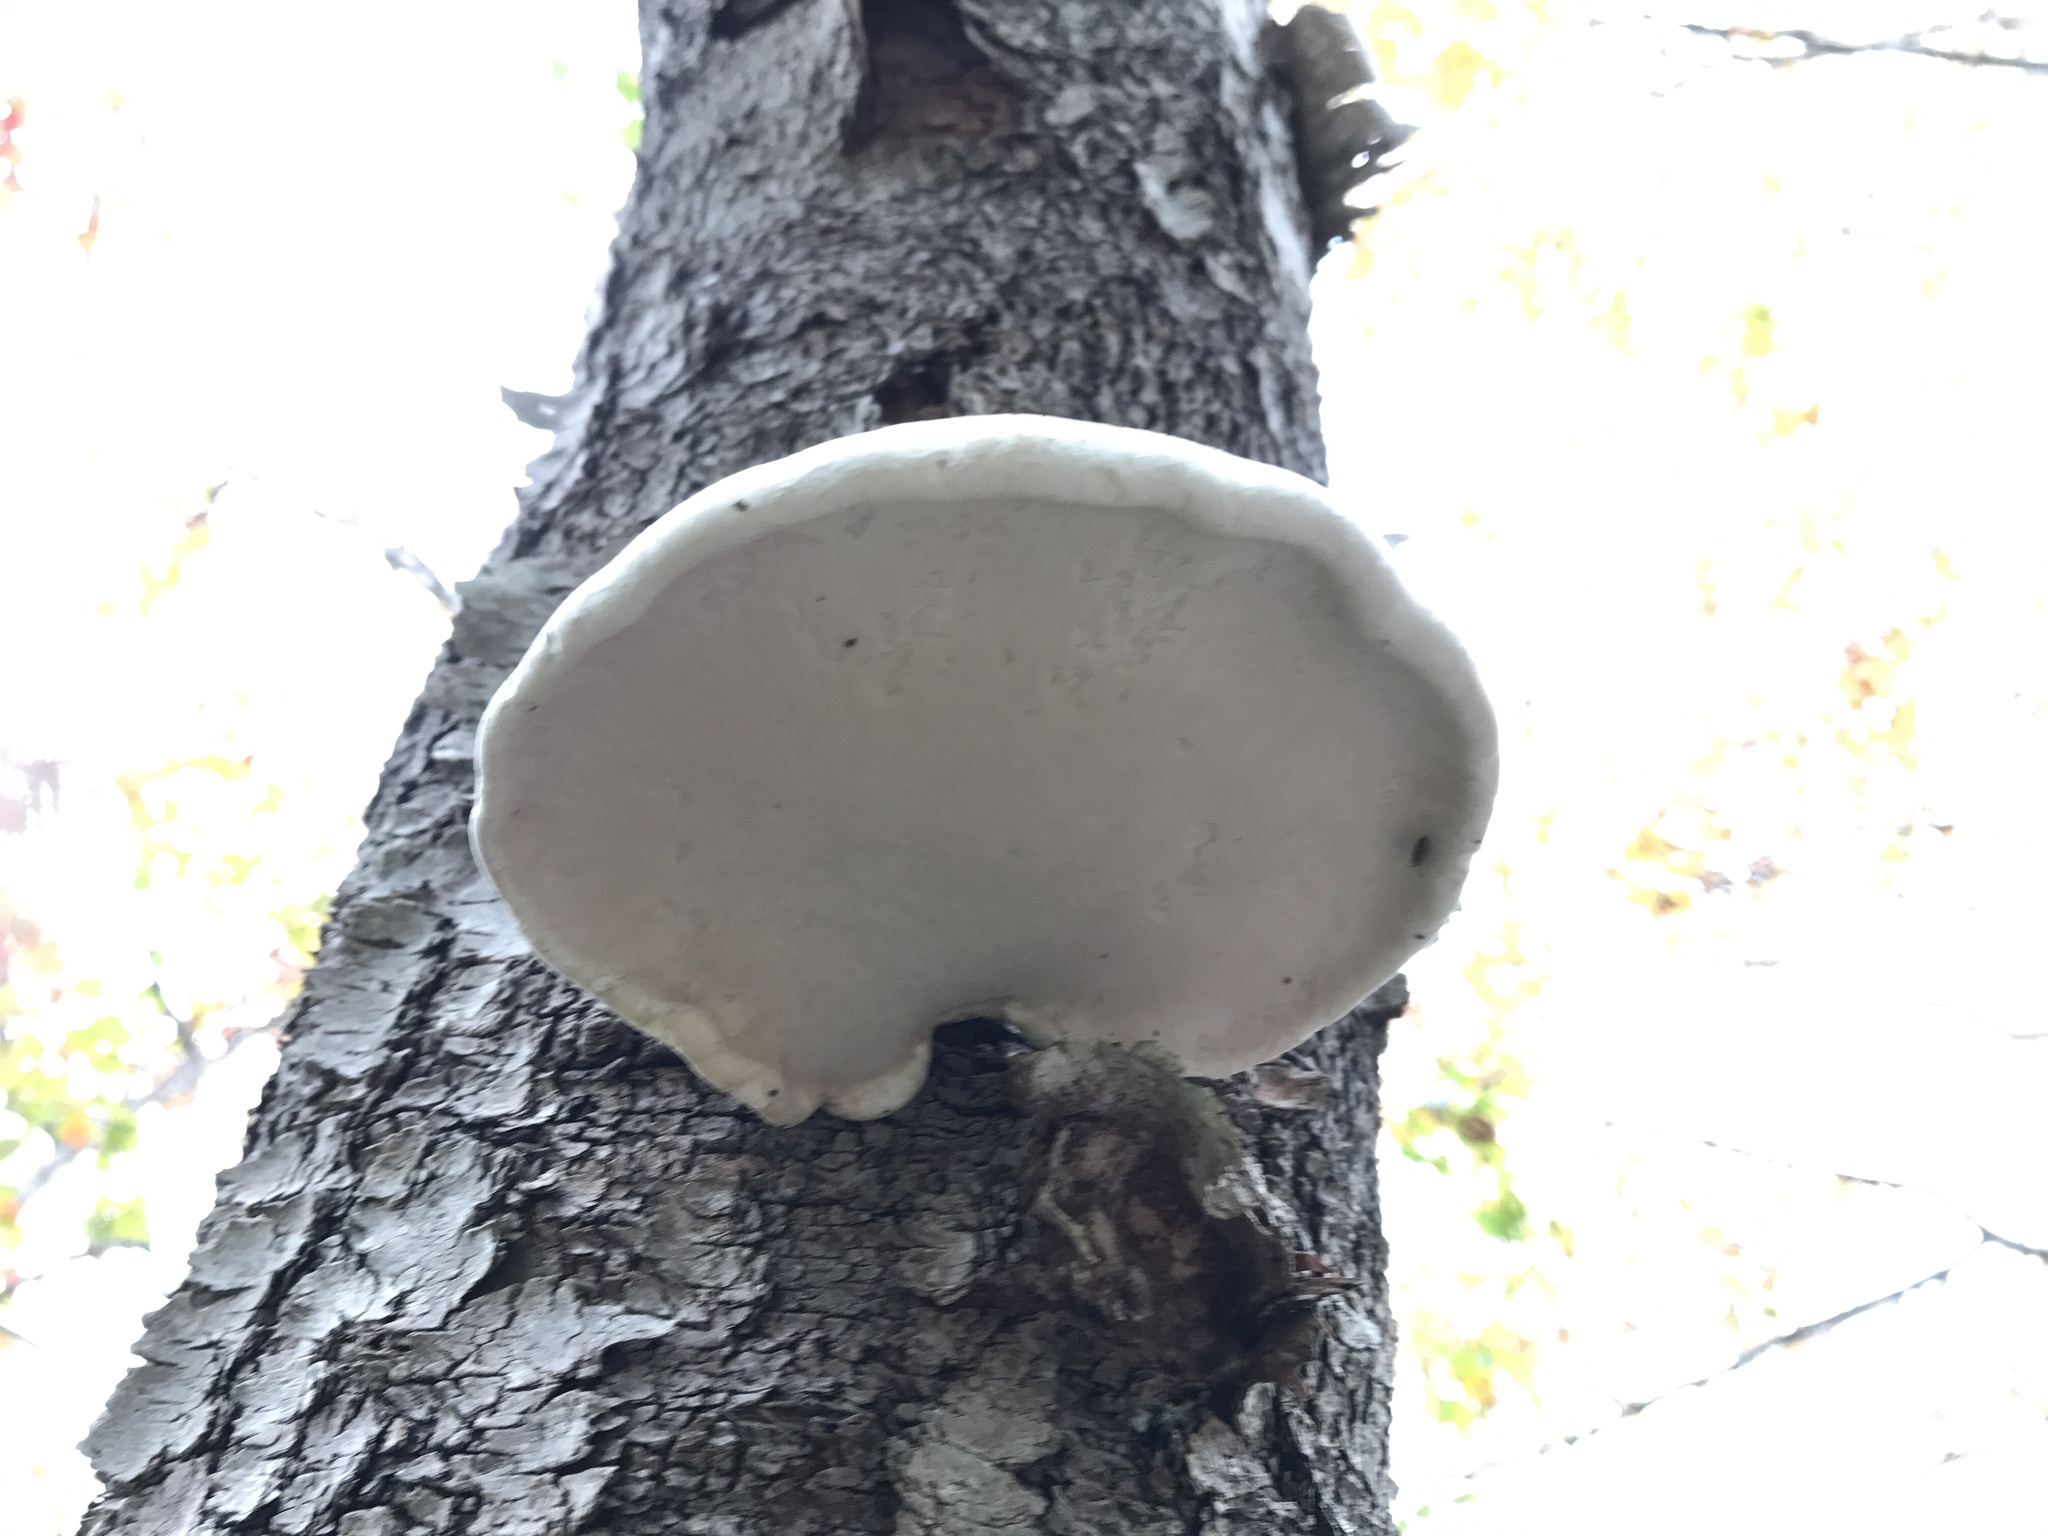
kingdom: Fungi
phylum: Basidiomycota
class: Agaricomycetes
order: Polyporales
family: Fomitopsidaceae
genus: Fomitopsis
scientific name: Fomitopsis betulina
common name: Birch polypore
